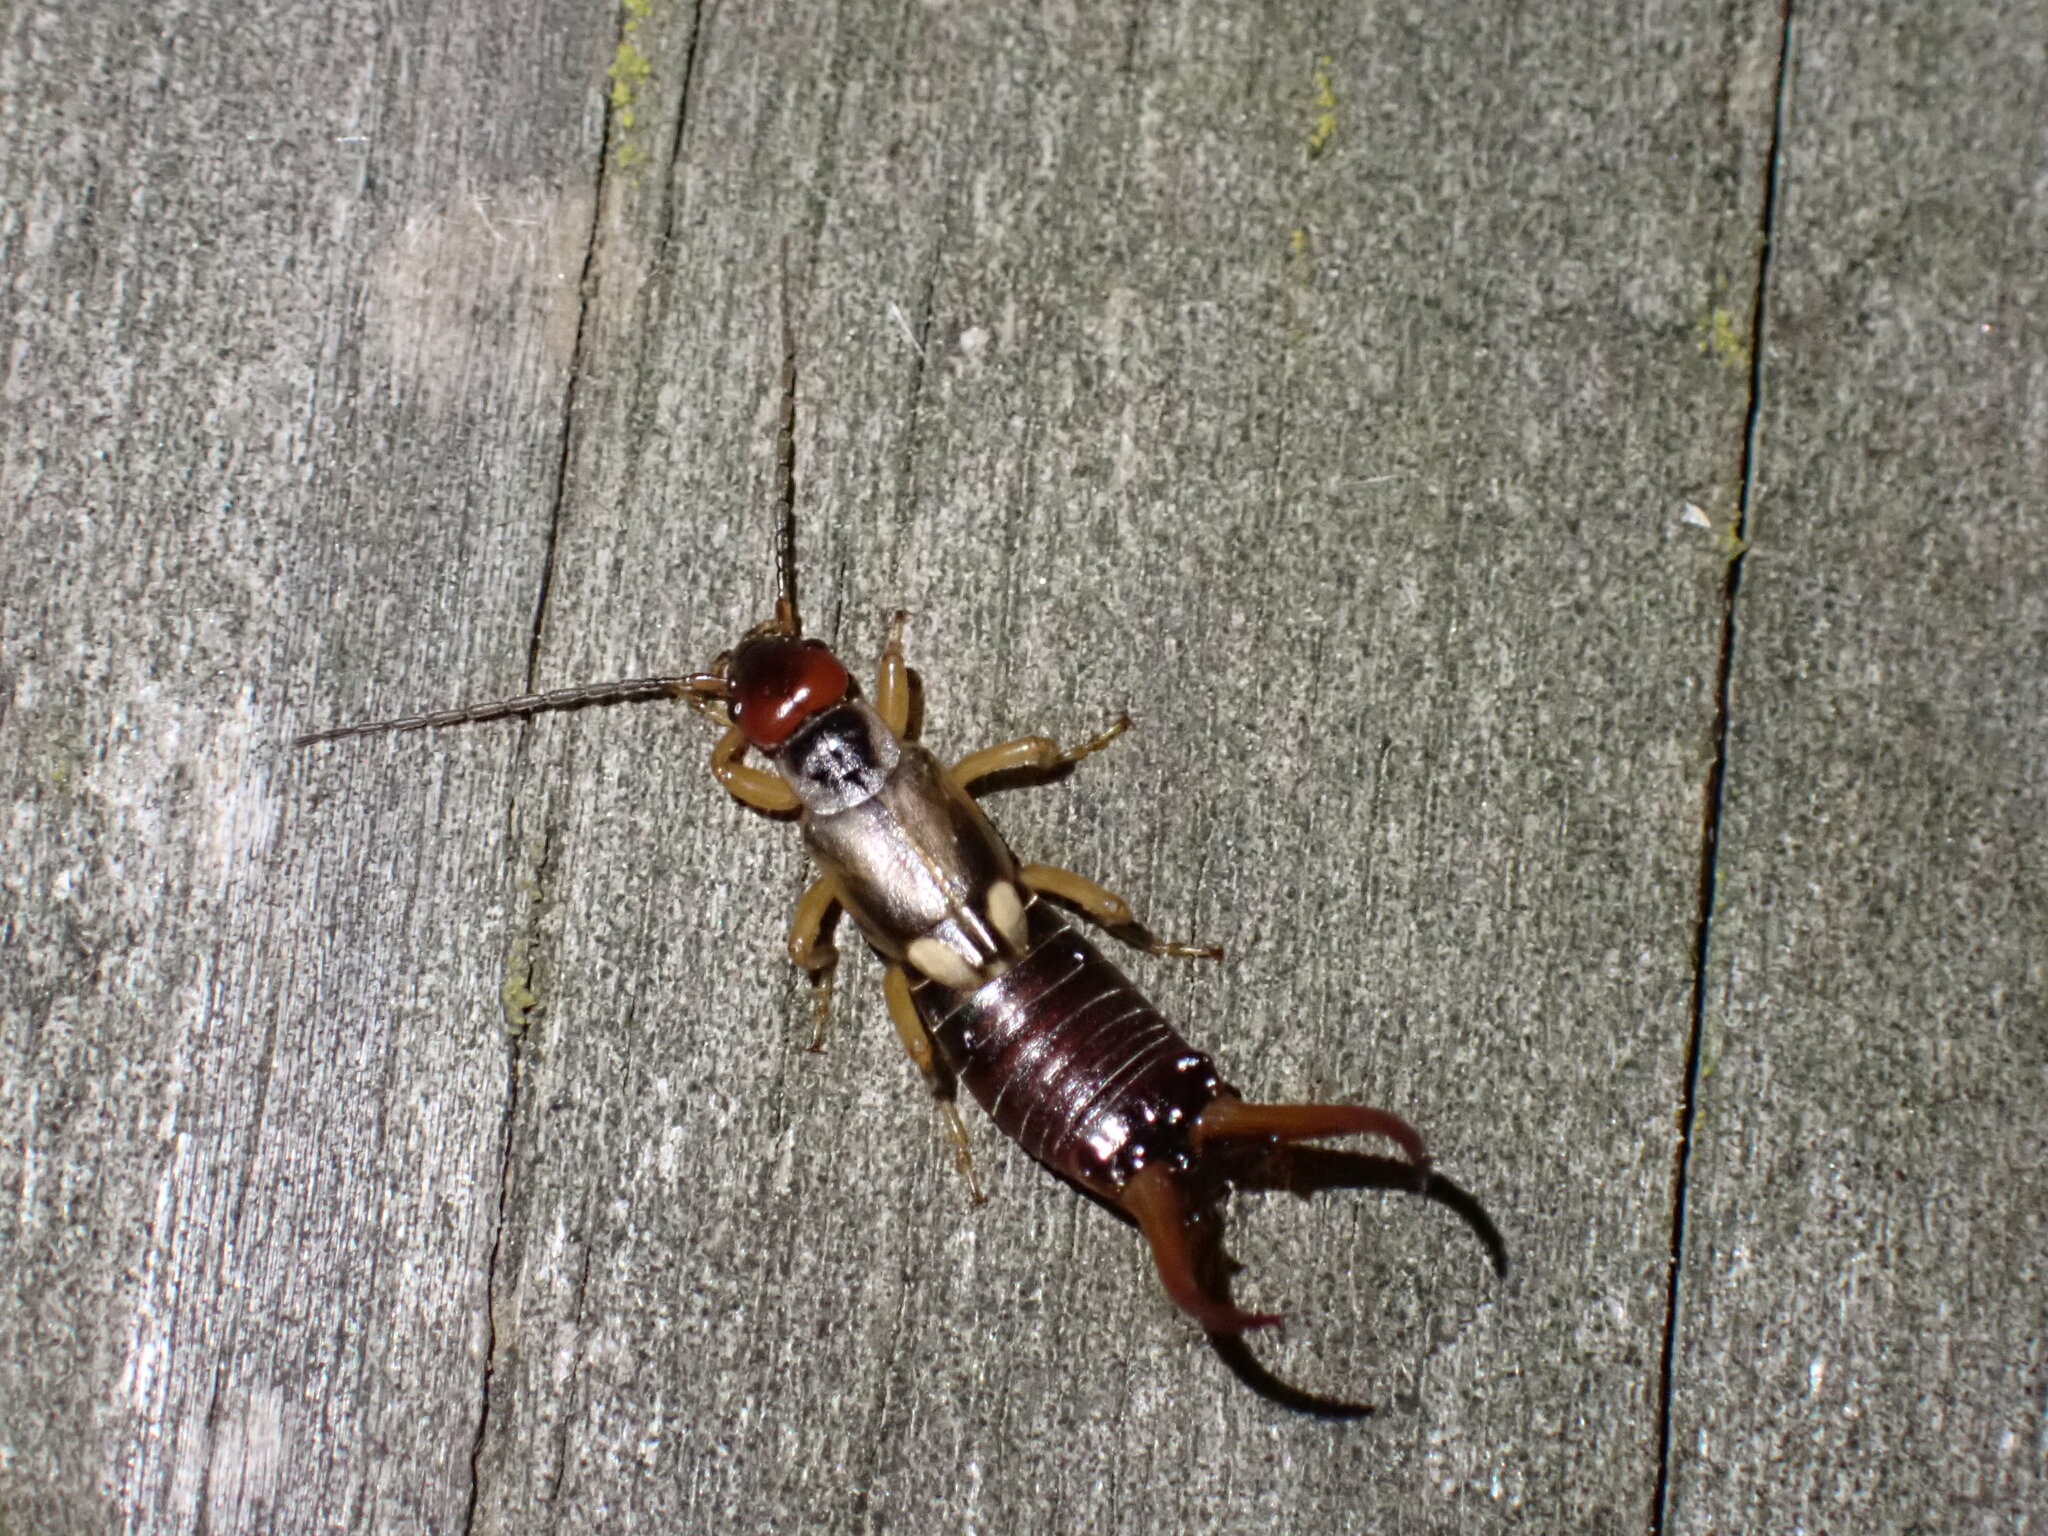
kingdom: Animalia
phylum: Arthropoda
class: Insecta
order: Dermaptera
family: Forficulidae
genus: Forficula
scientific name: Forficula
